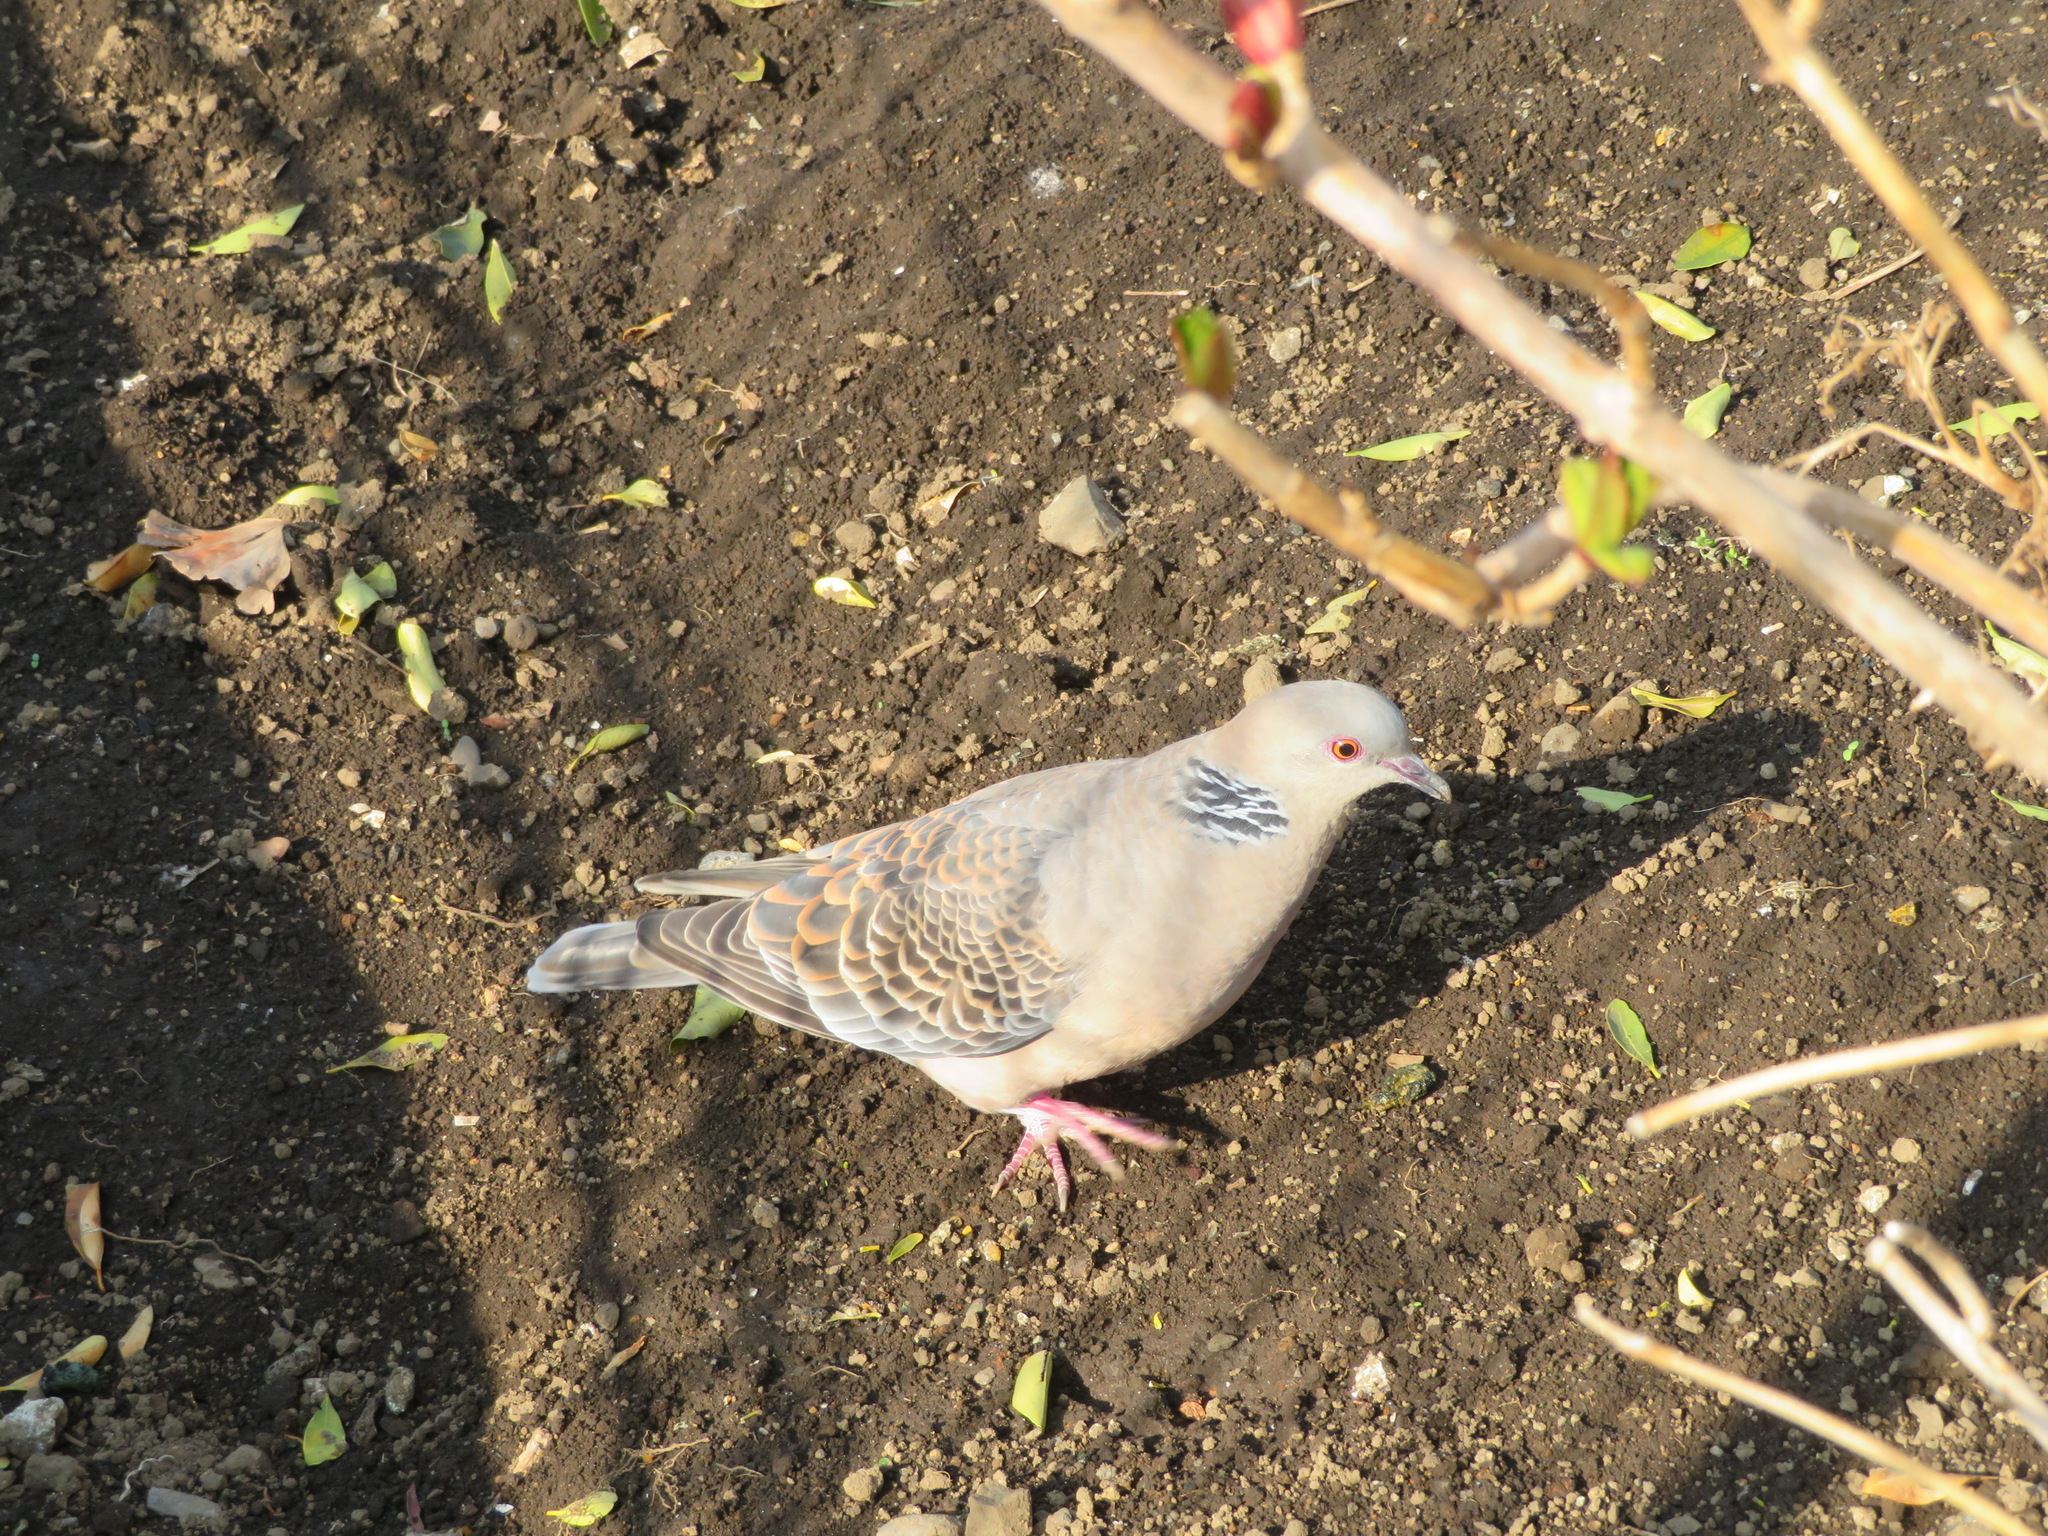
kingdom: Animalia
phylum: Chordata
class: Aves
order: Columbiformes
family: Columbidae
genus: Streptopelia
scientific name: Streptopelia orientalis
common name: Oriental turtle dove
